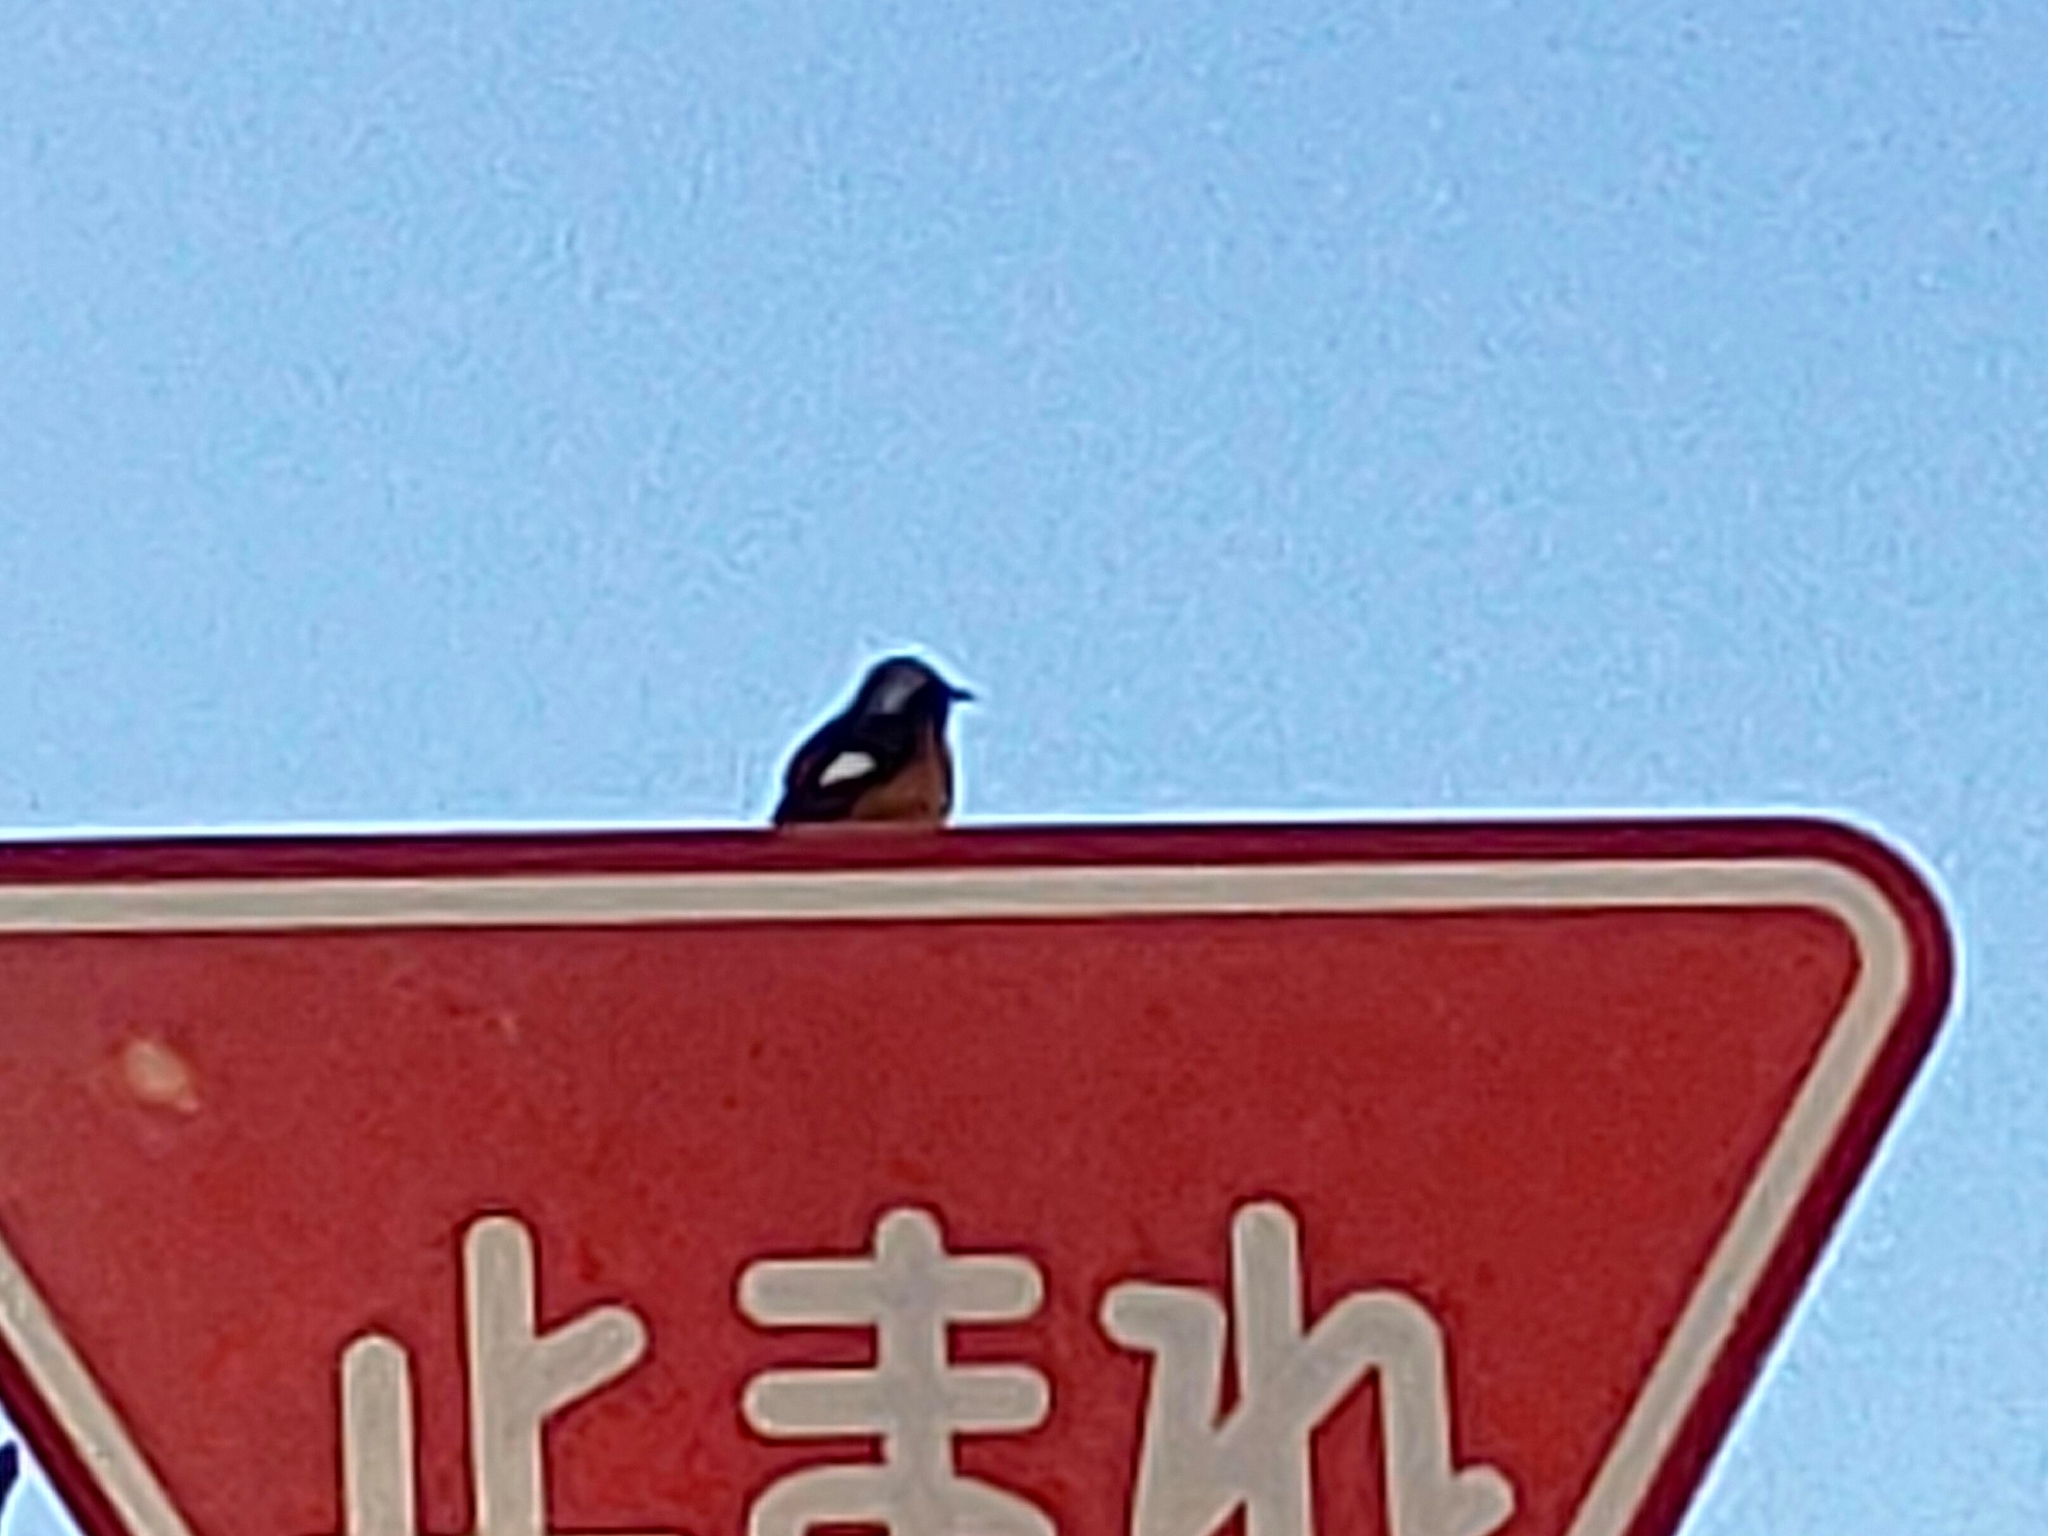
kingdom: Animalia
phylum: Chordata
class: Aves
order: Passeriformes
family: Muscicapidae
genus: Phoenicurus
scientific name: Phoenicurus auroreus
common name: Daurian redstart
